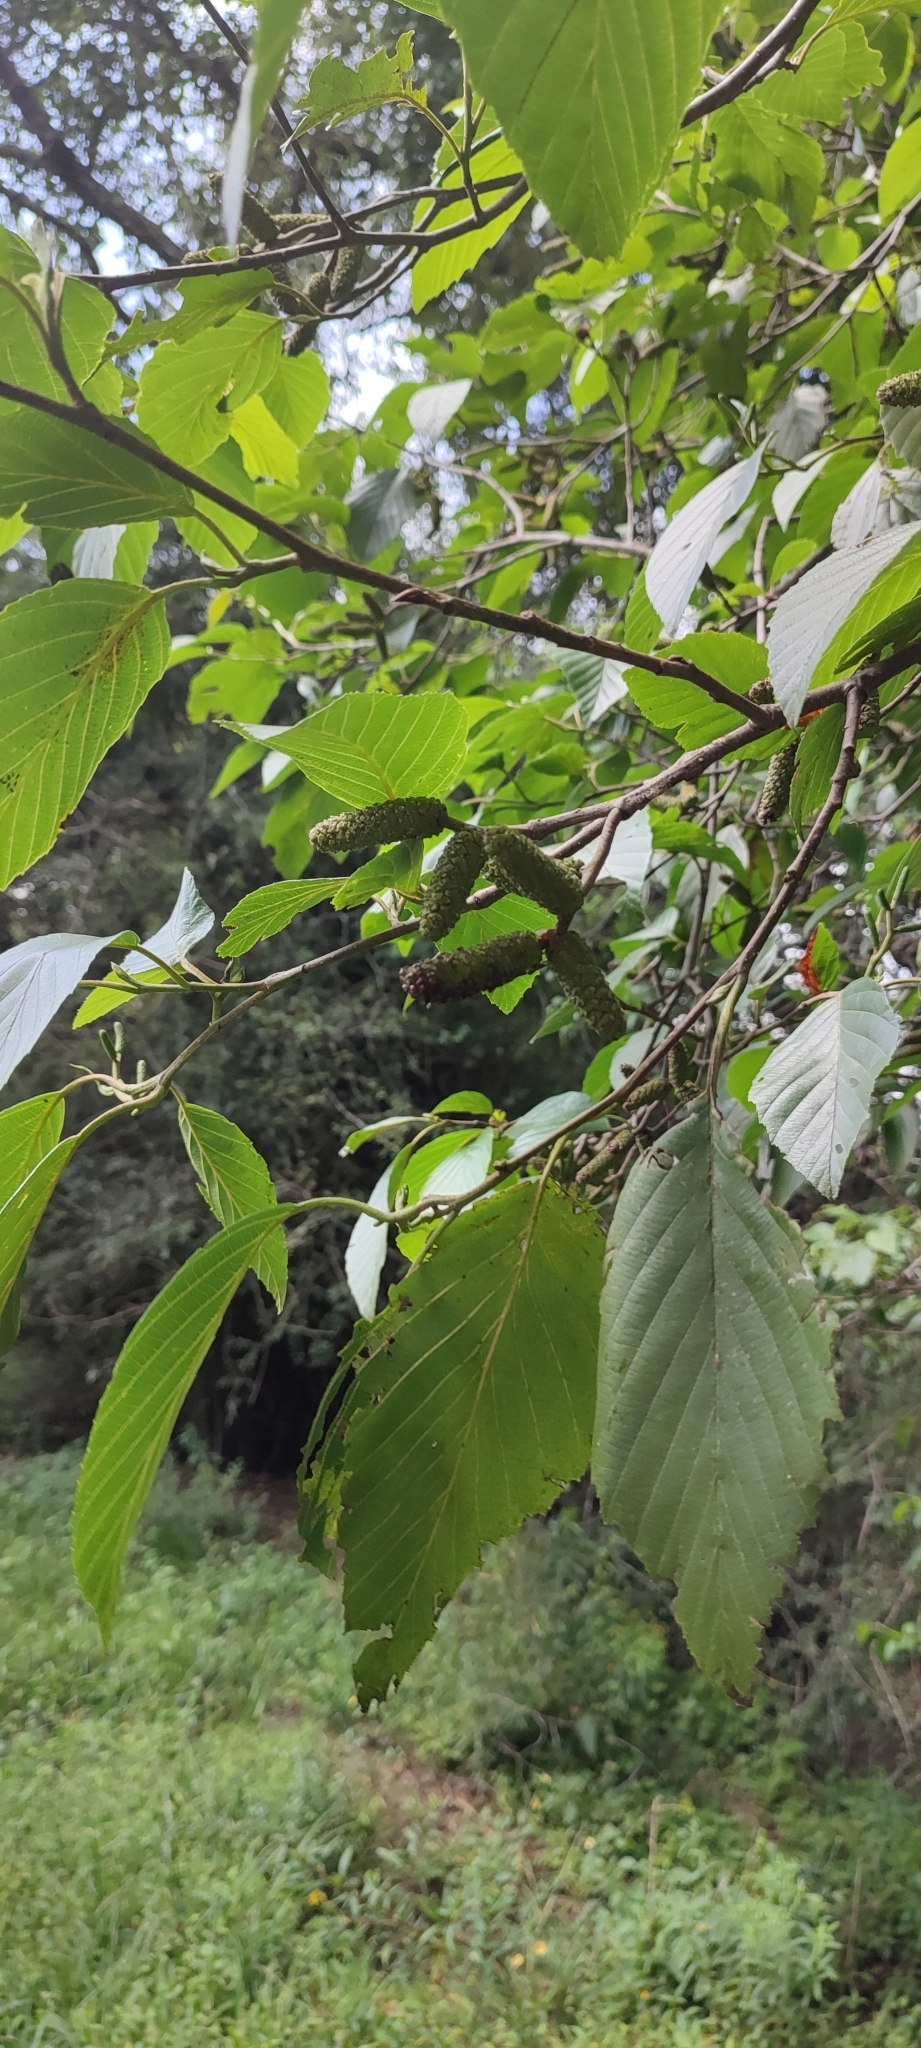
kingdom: Plantae
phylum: Tracheophyta
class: Magnoliopsida
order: Fagales
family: Betulaceae
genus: Alnus
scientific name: Alnus acuminata
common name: Alder
